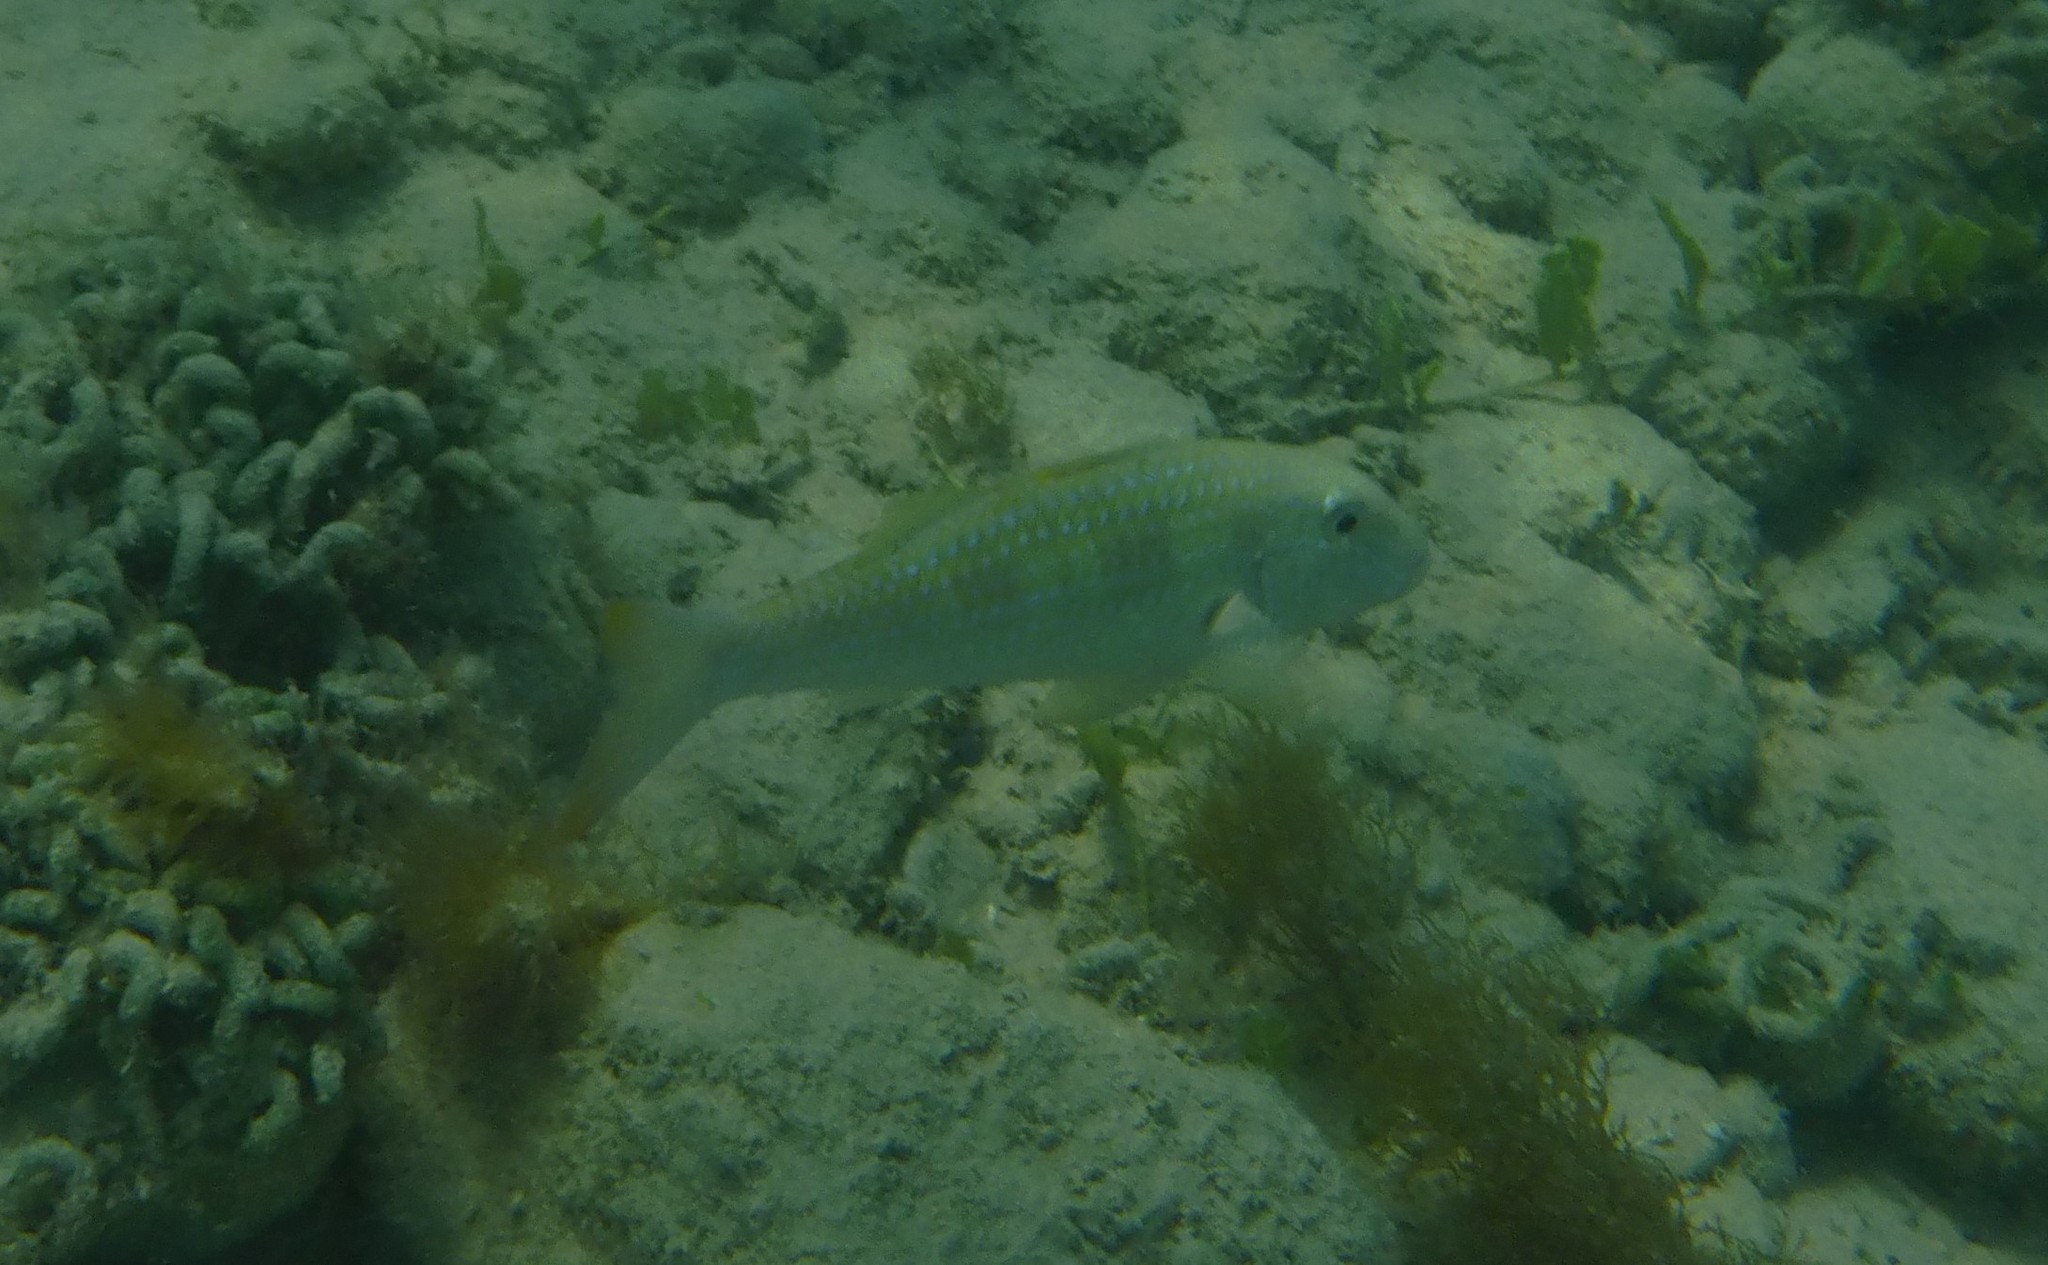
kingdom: Animalia
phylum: Chordata
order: Perciformes
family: Mullidae
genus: Pseudupeneus
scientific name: Pseudupeneus maculatus
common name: Spotted goatfish
